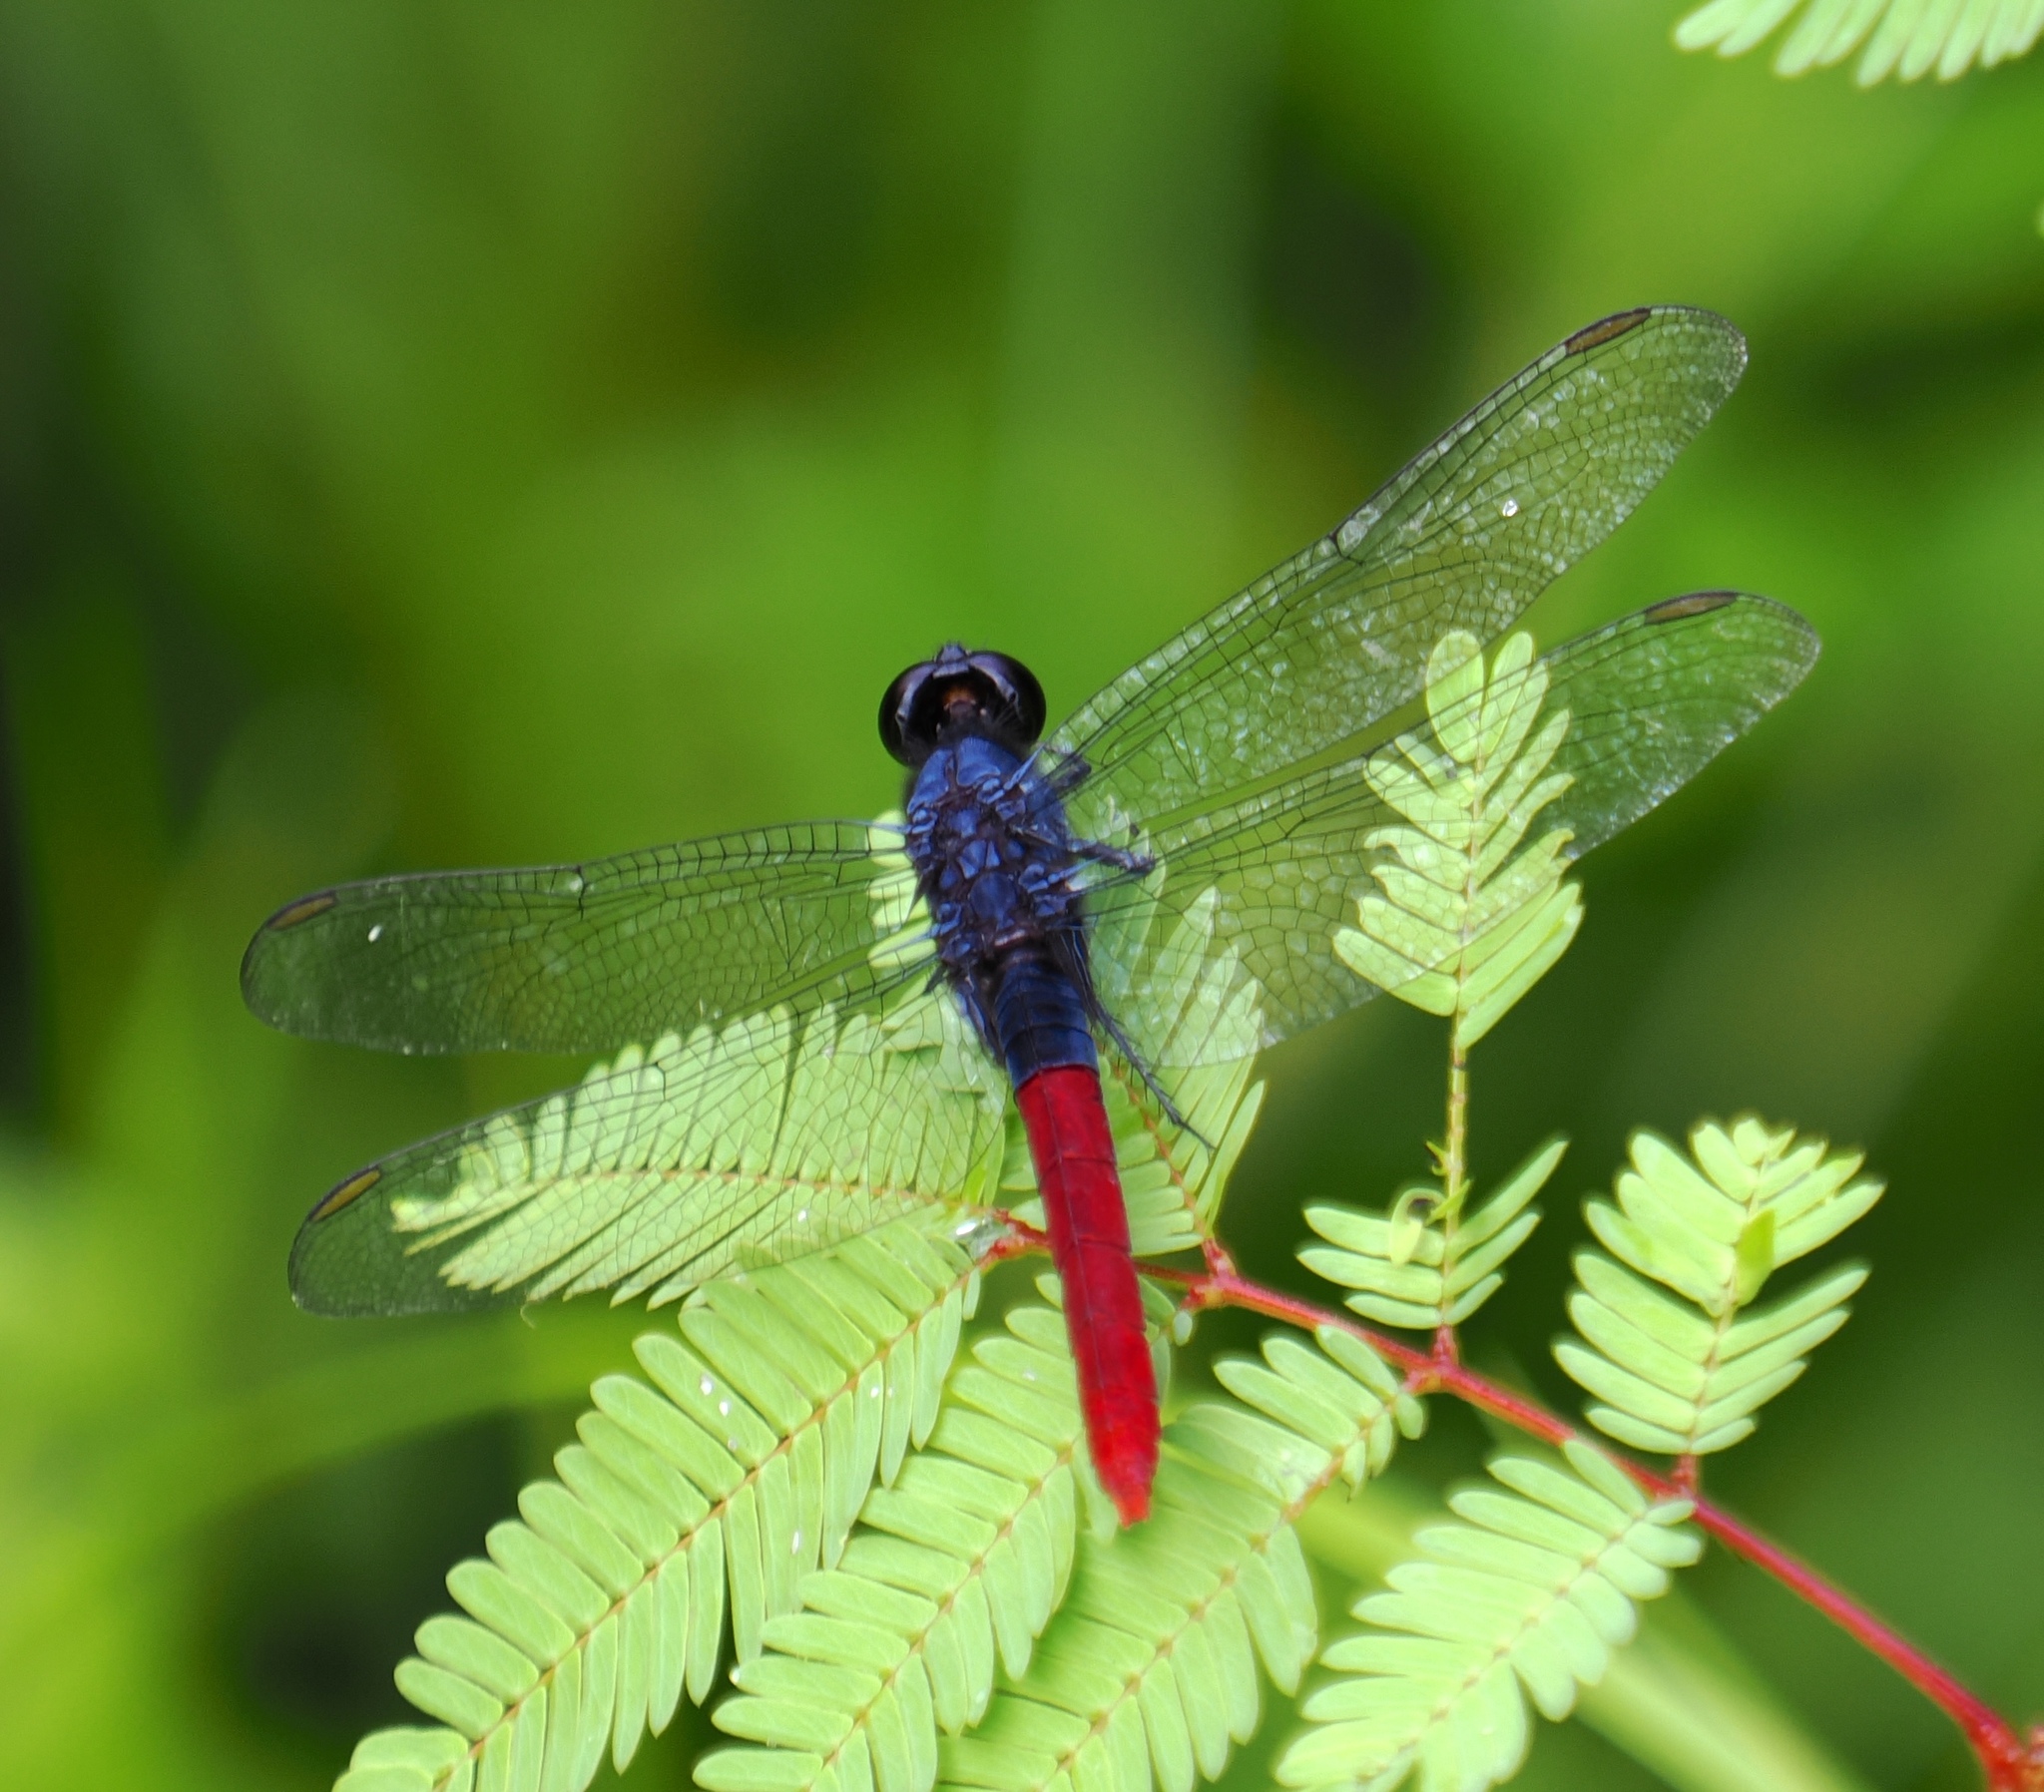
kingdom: Animalia
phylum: Arthropoda
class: Insecta
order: Odonata
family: Libellulidae
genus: Erythemis
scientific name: Erythemis peruviana
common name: Flame-tailed pondhawk
